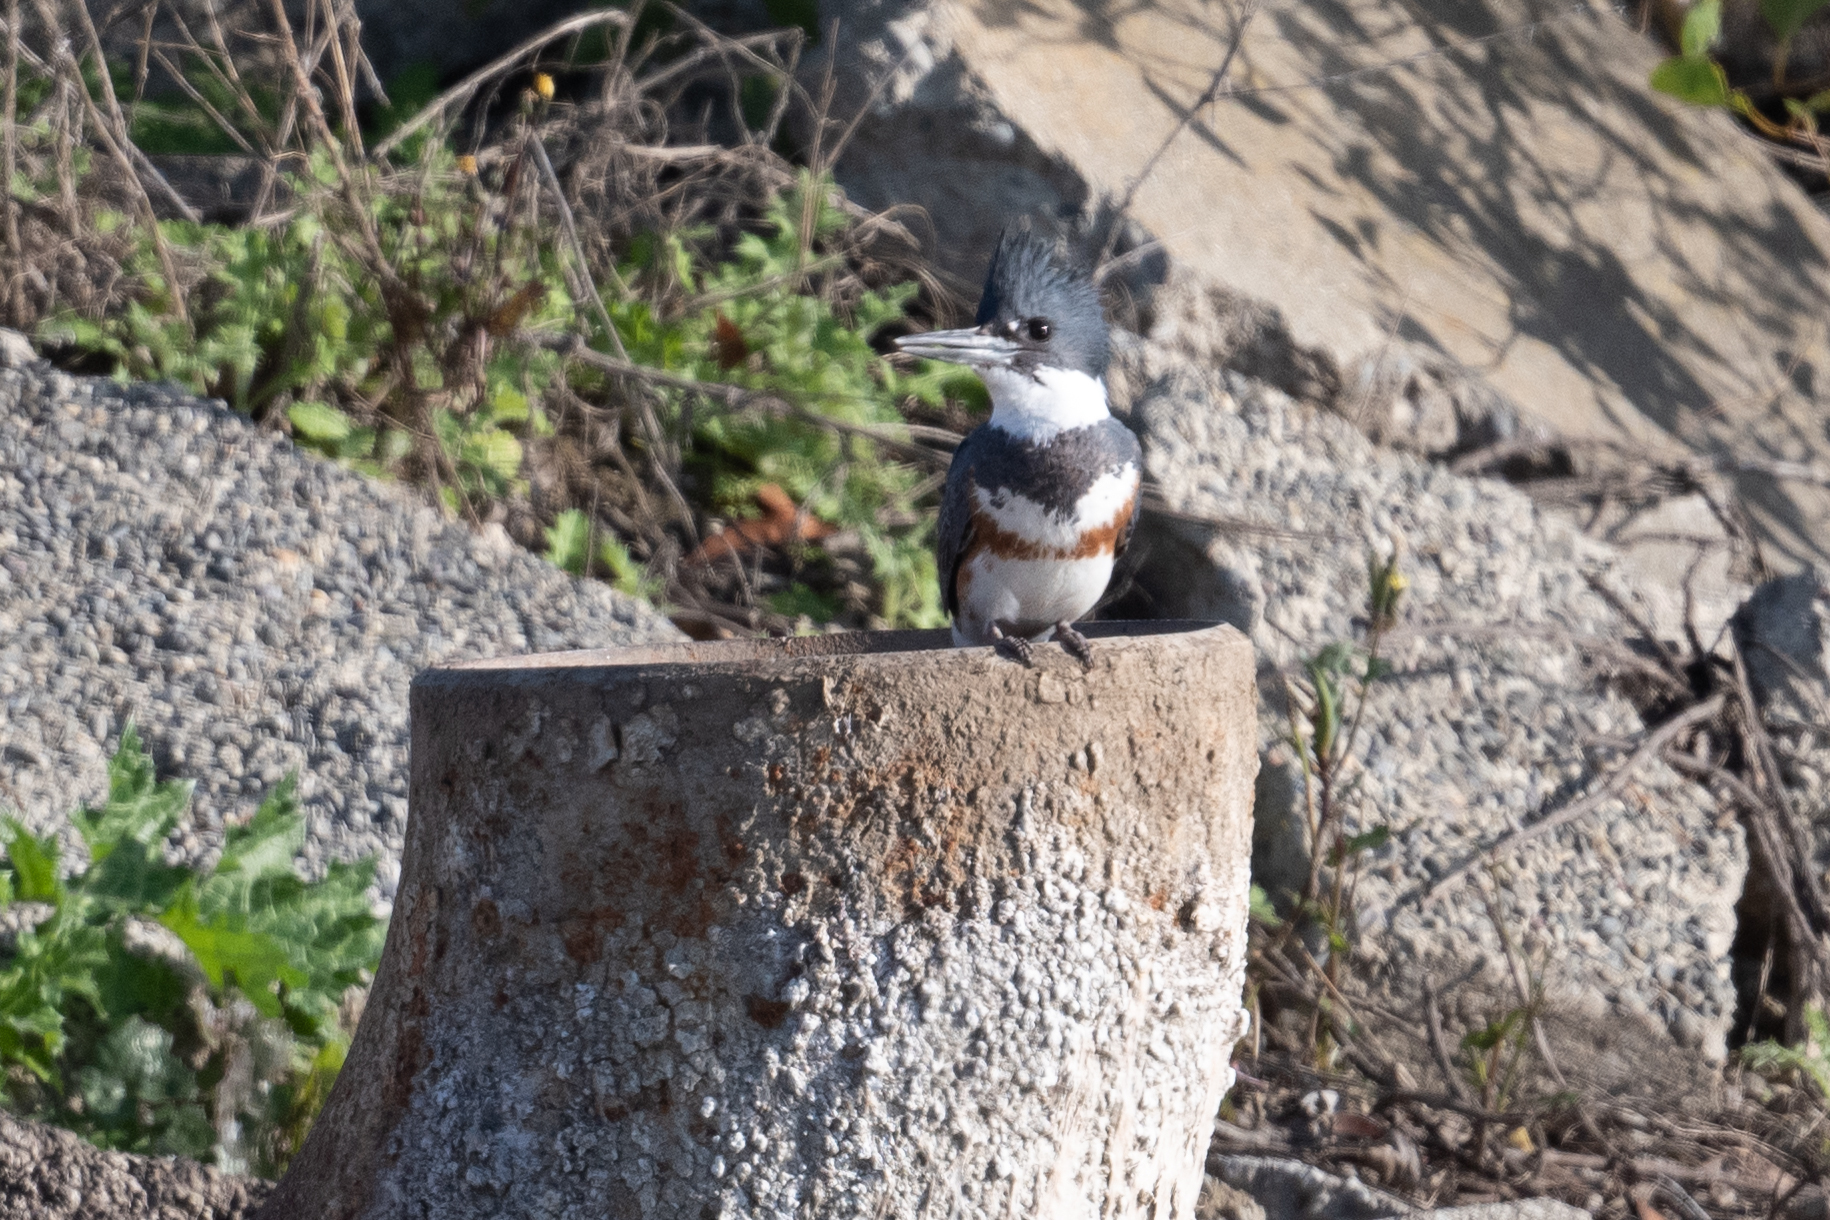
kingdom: Animalia
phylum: Chordata
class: Aves
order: Coraciiformes
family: Alcedinidae
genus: Megaceryle
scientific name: Megaceryle alcyon
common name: Belted kingfisher
